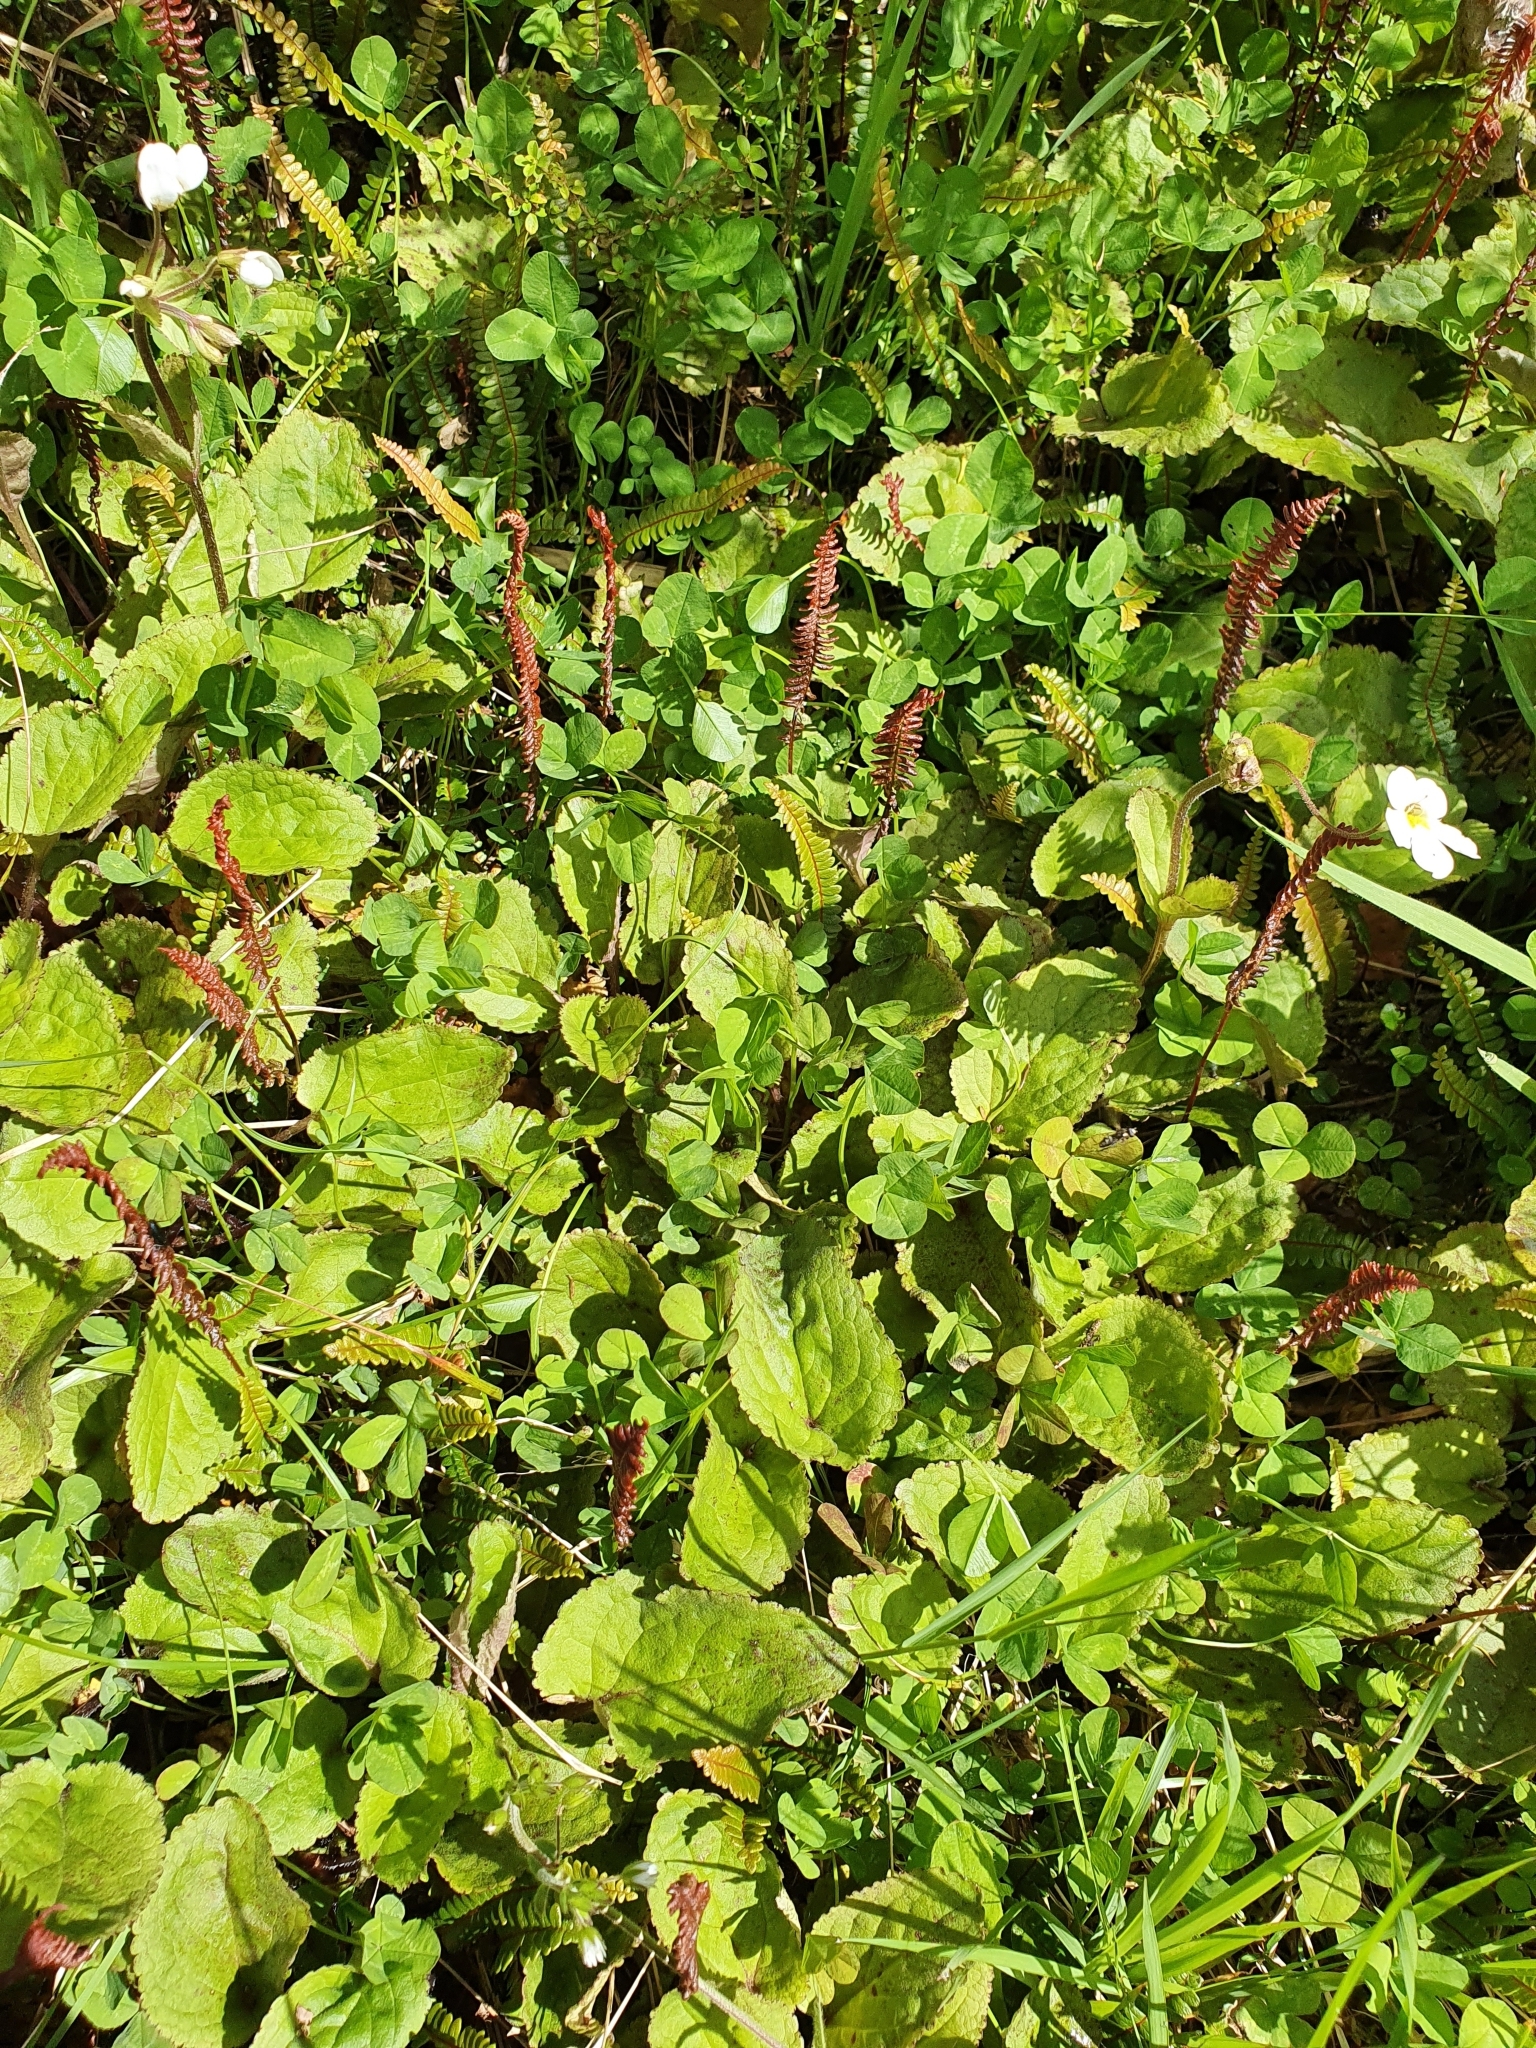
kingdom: Plantae
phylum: Tracheophyta
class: Magnoliopsida
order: Lamiales
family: Plantaginaceae
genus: Ourisia
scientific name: Ourisia macrophylla
